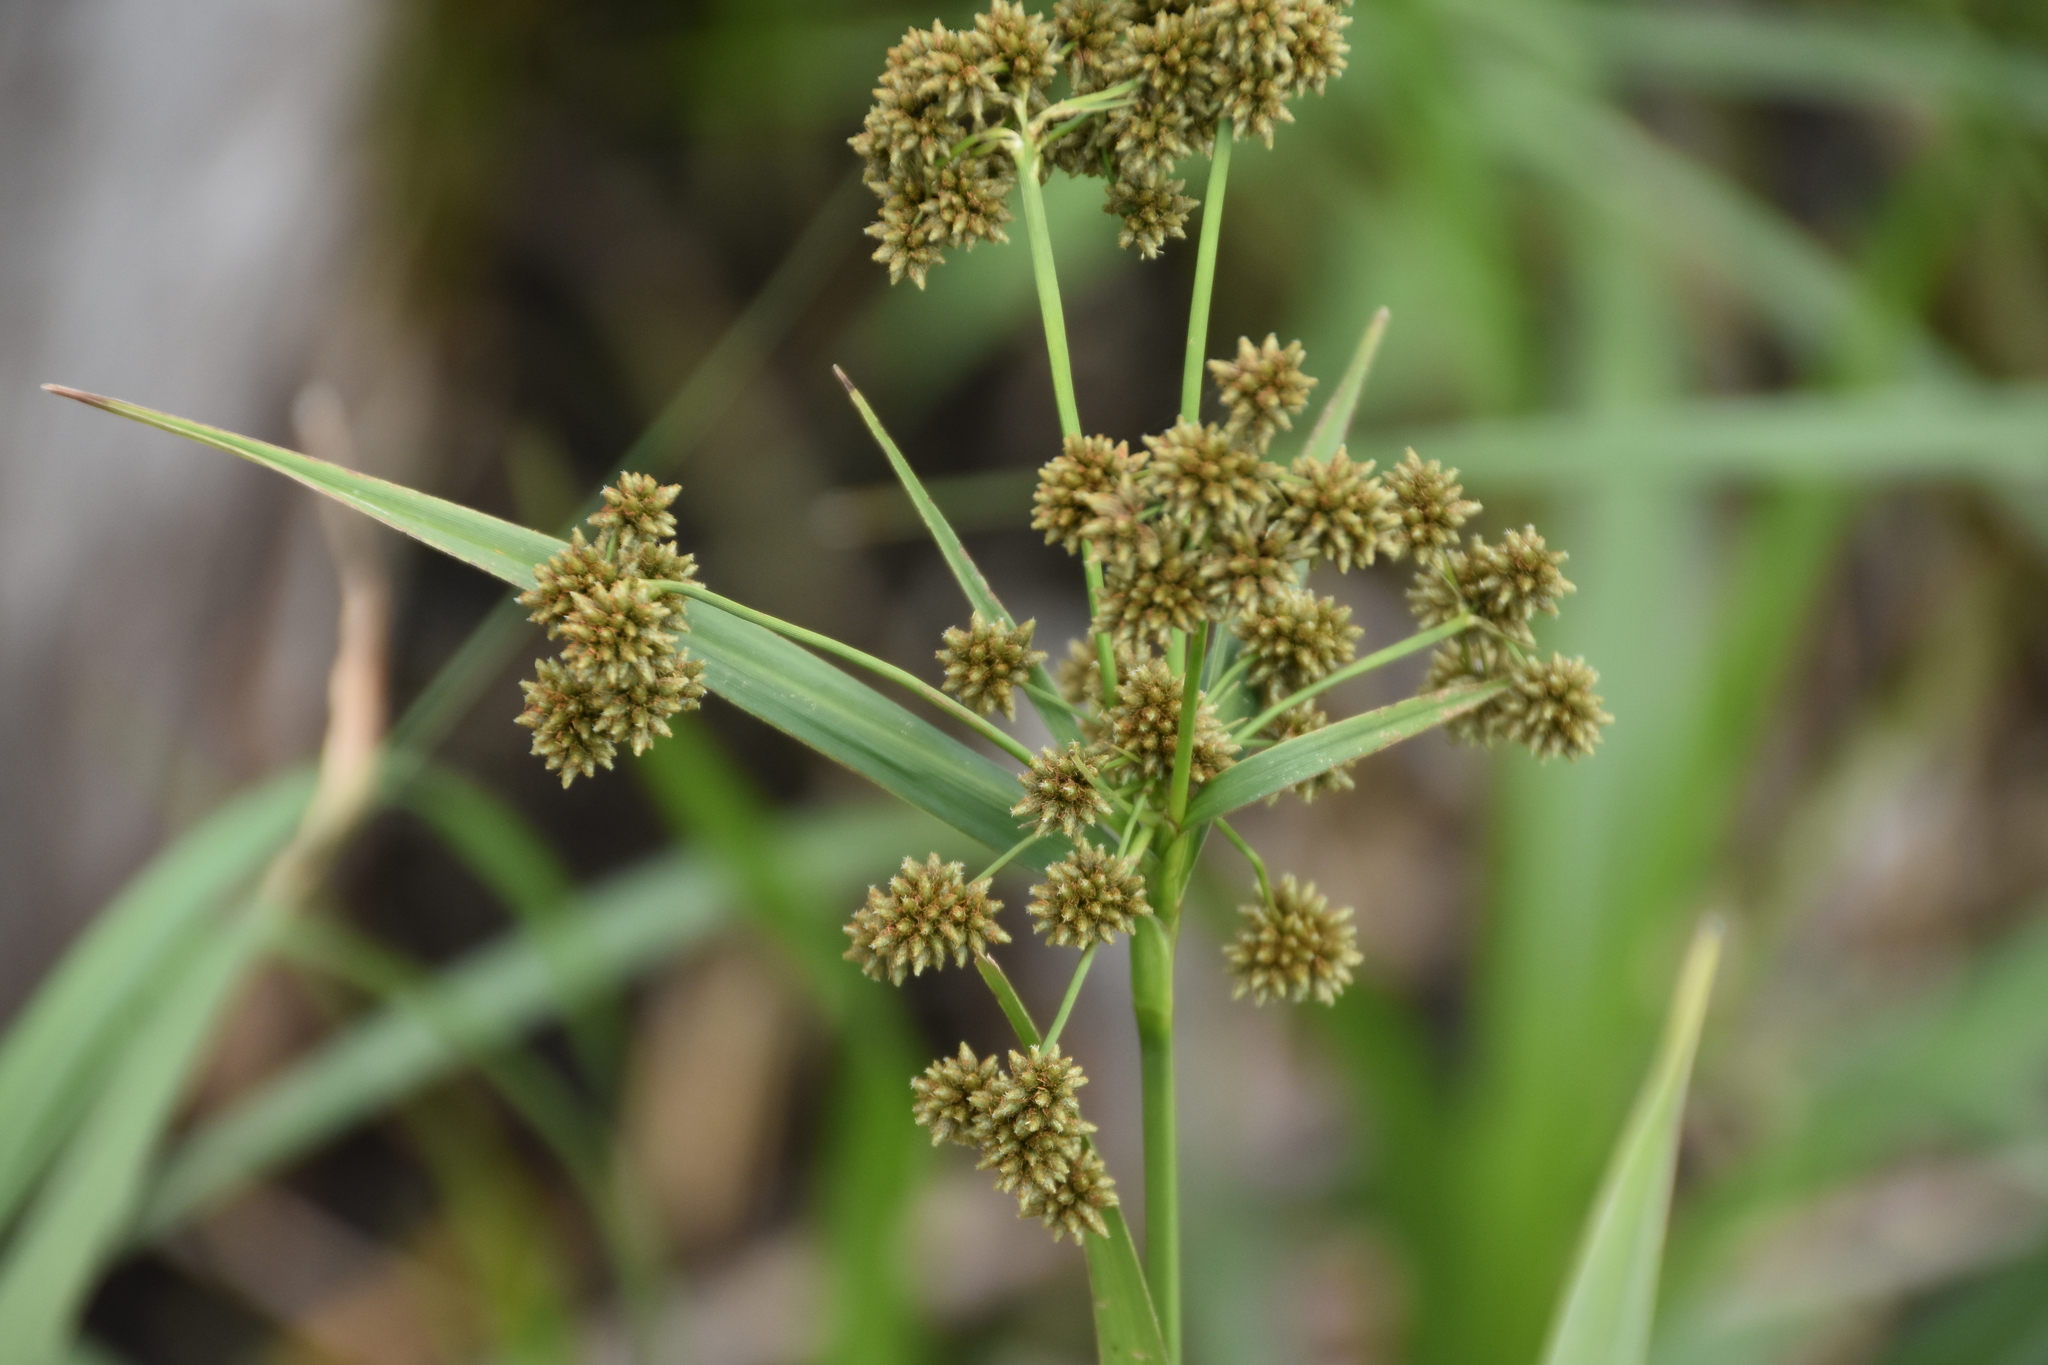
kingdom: Plantae
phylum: Tracheophyta
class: Liliopsida
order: Poales
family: Cyperaceae
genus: Scirpus
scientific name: Scirpus atrovirens
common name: Black bulrush
